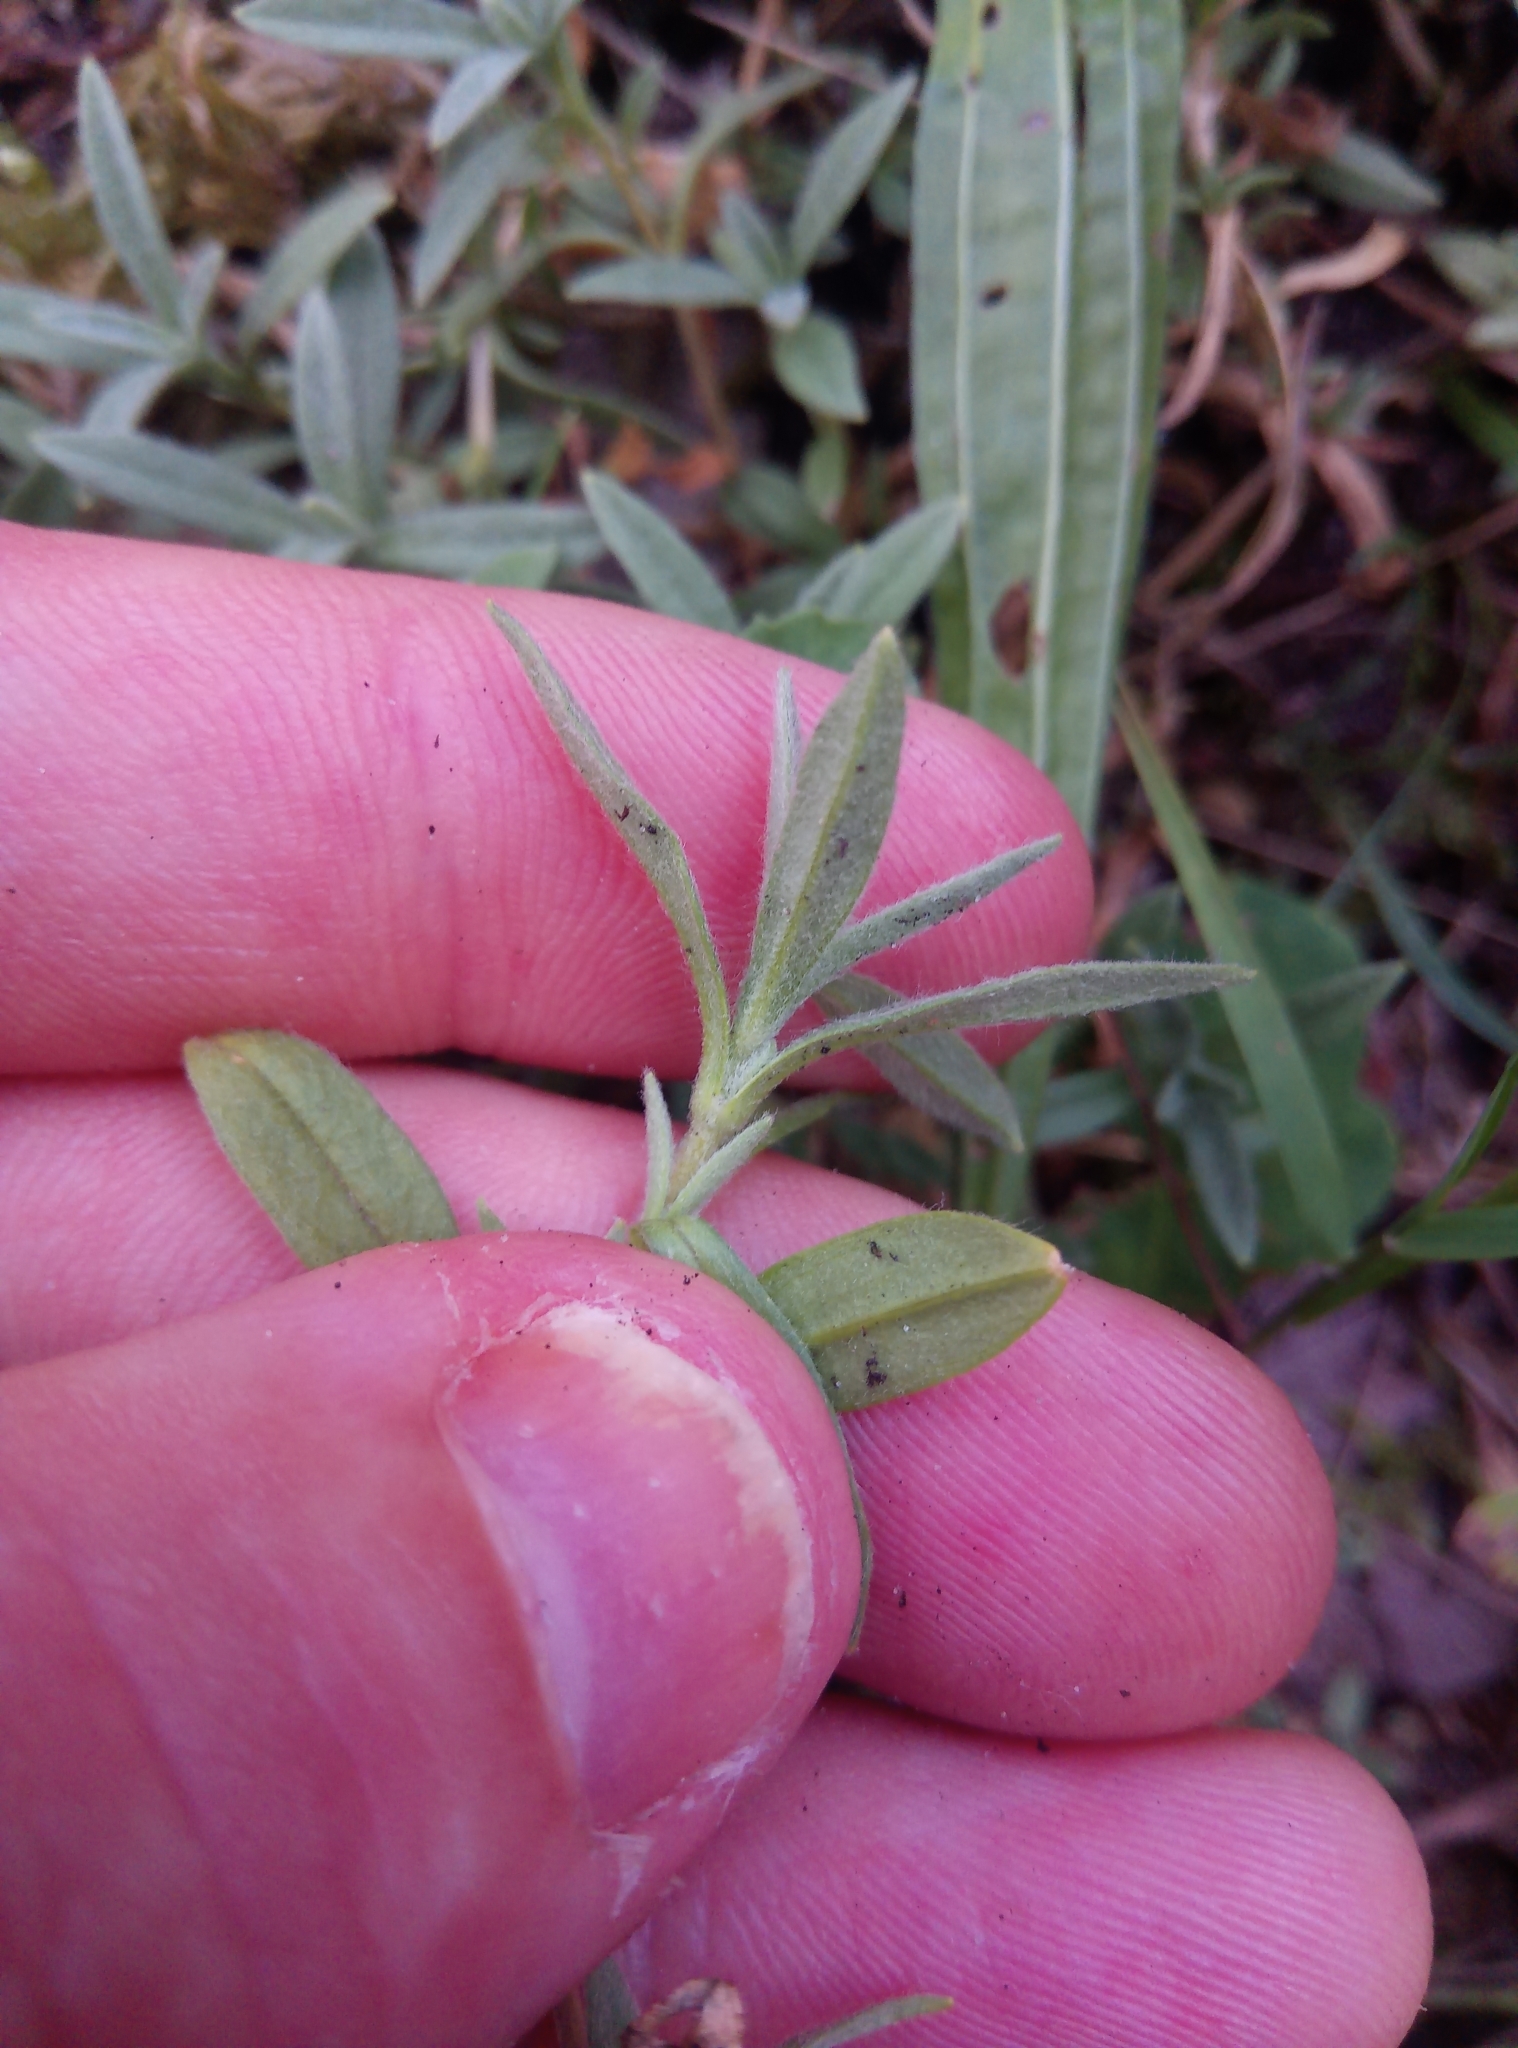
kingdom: Plantae
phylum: Tracheophyta
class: Magnoliopsida
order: Caryophyllales
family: Caryophyllaceae
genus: Cerastium
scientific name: Cerastium tomentosum
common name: Snow-in-summer
